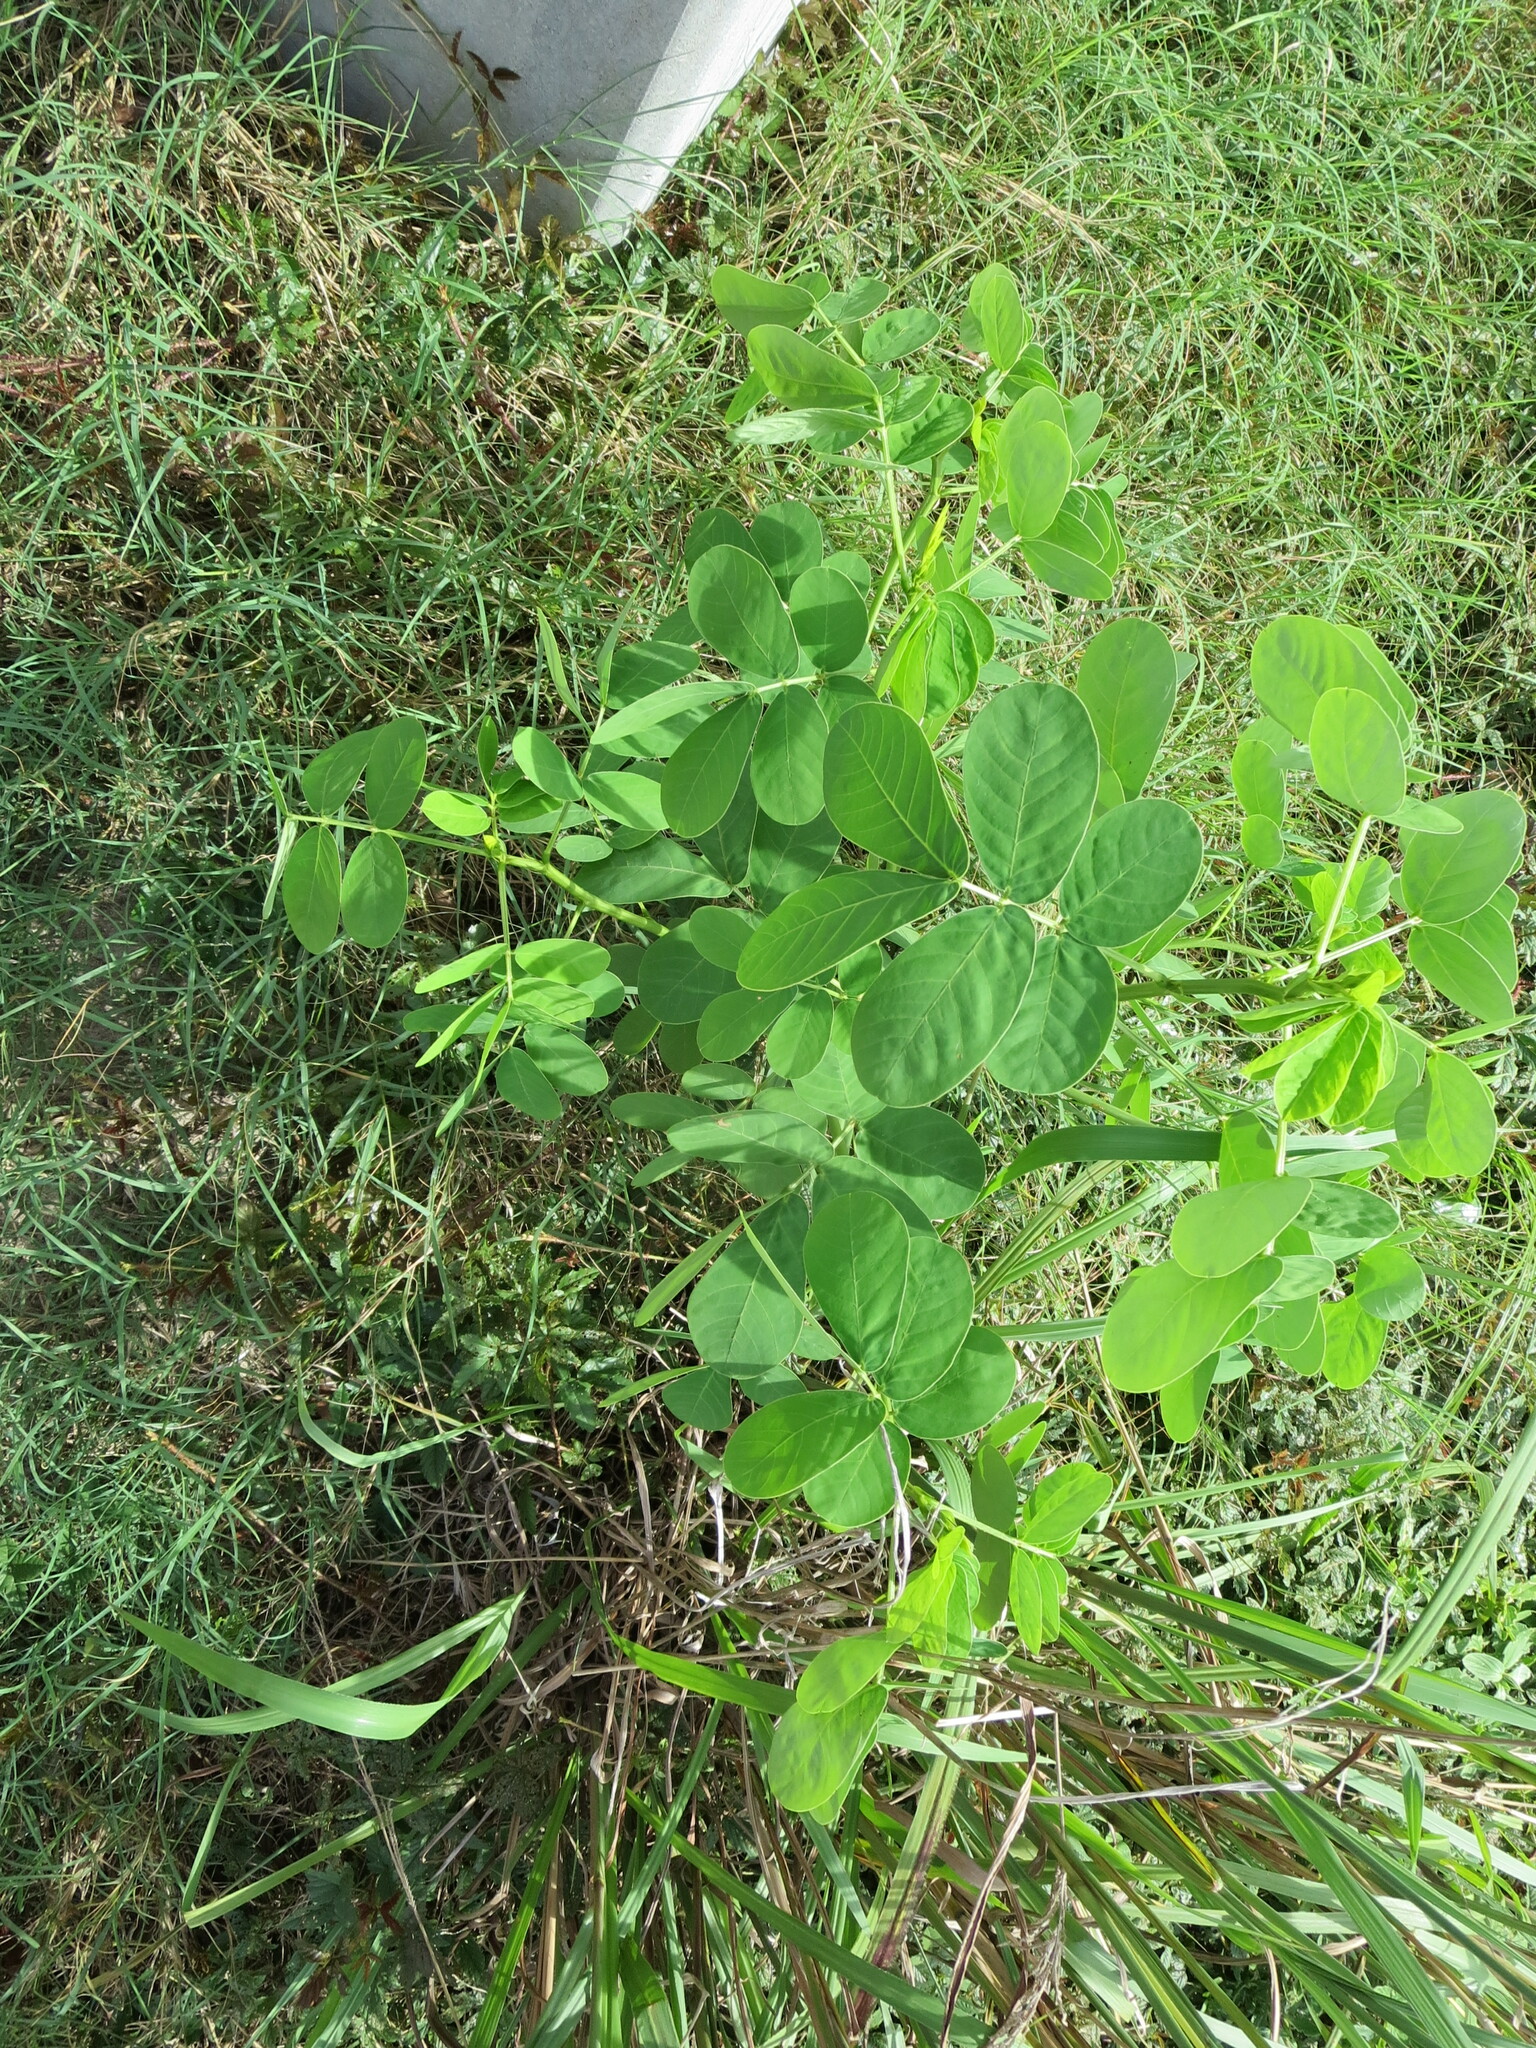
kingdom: Plantae
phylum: Tracheophyta
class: Magnoliopsida
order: Fabales
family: Fabaceae
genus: Senna
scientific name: Senna obtusifolia
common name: Java-bean
